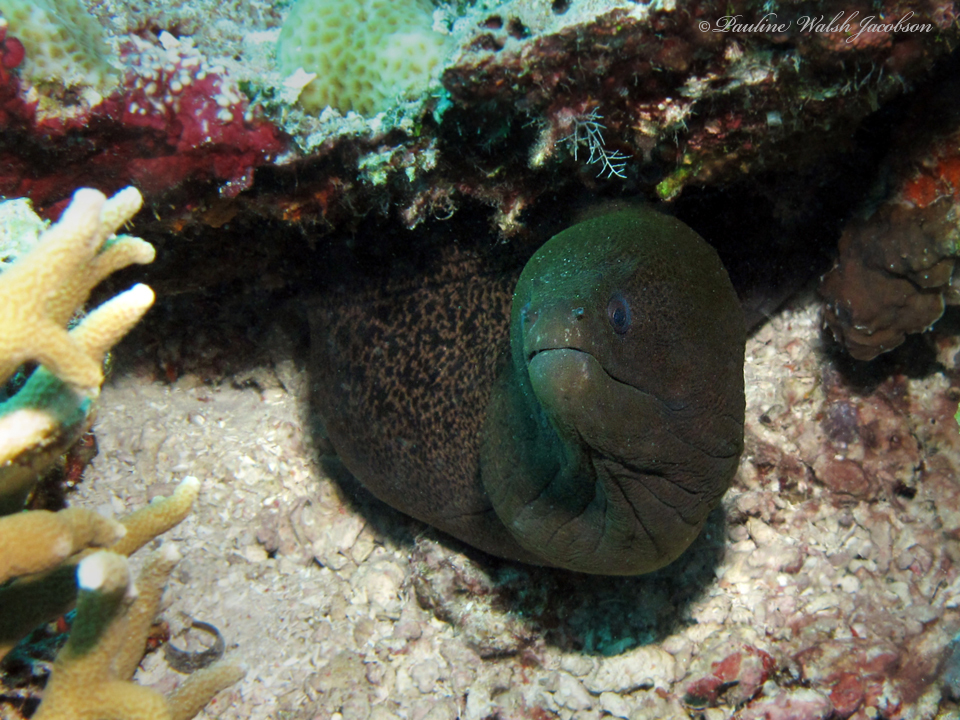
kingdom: Animalia
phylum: Chordata
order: Anguilliformes
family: Muraenidae
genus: Gymnothorax
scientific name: Gymnothorax flavimarginatus
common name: Yellow-edged moray
